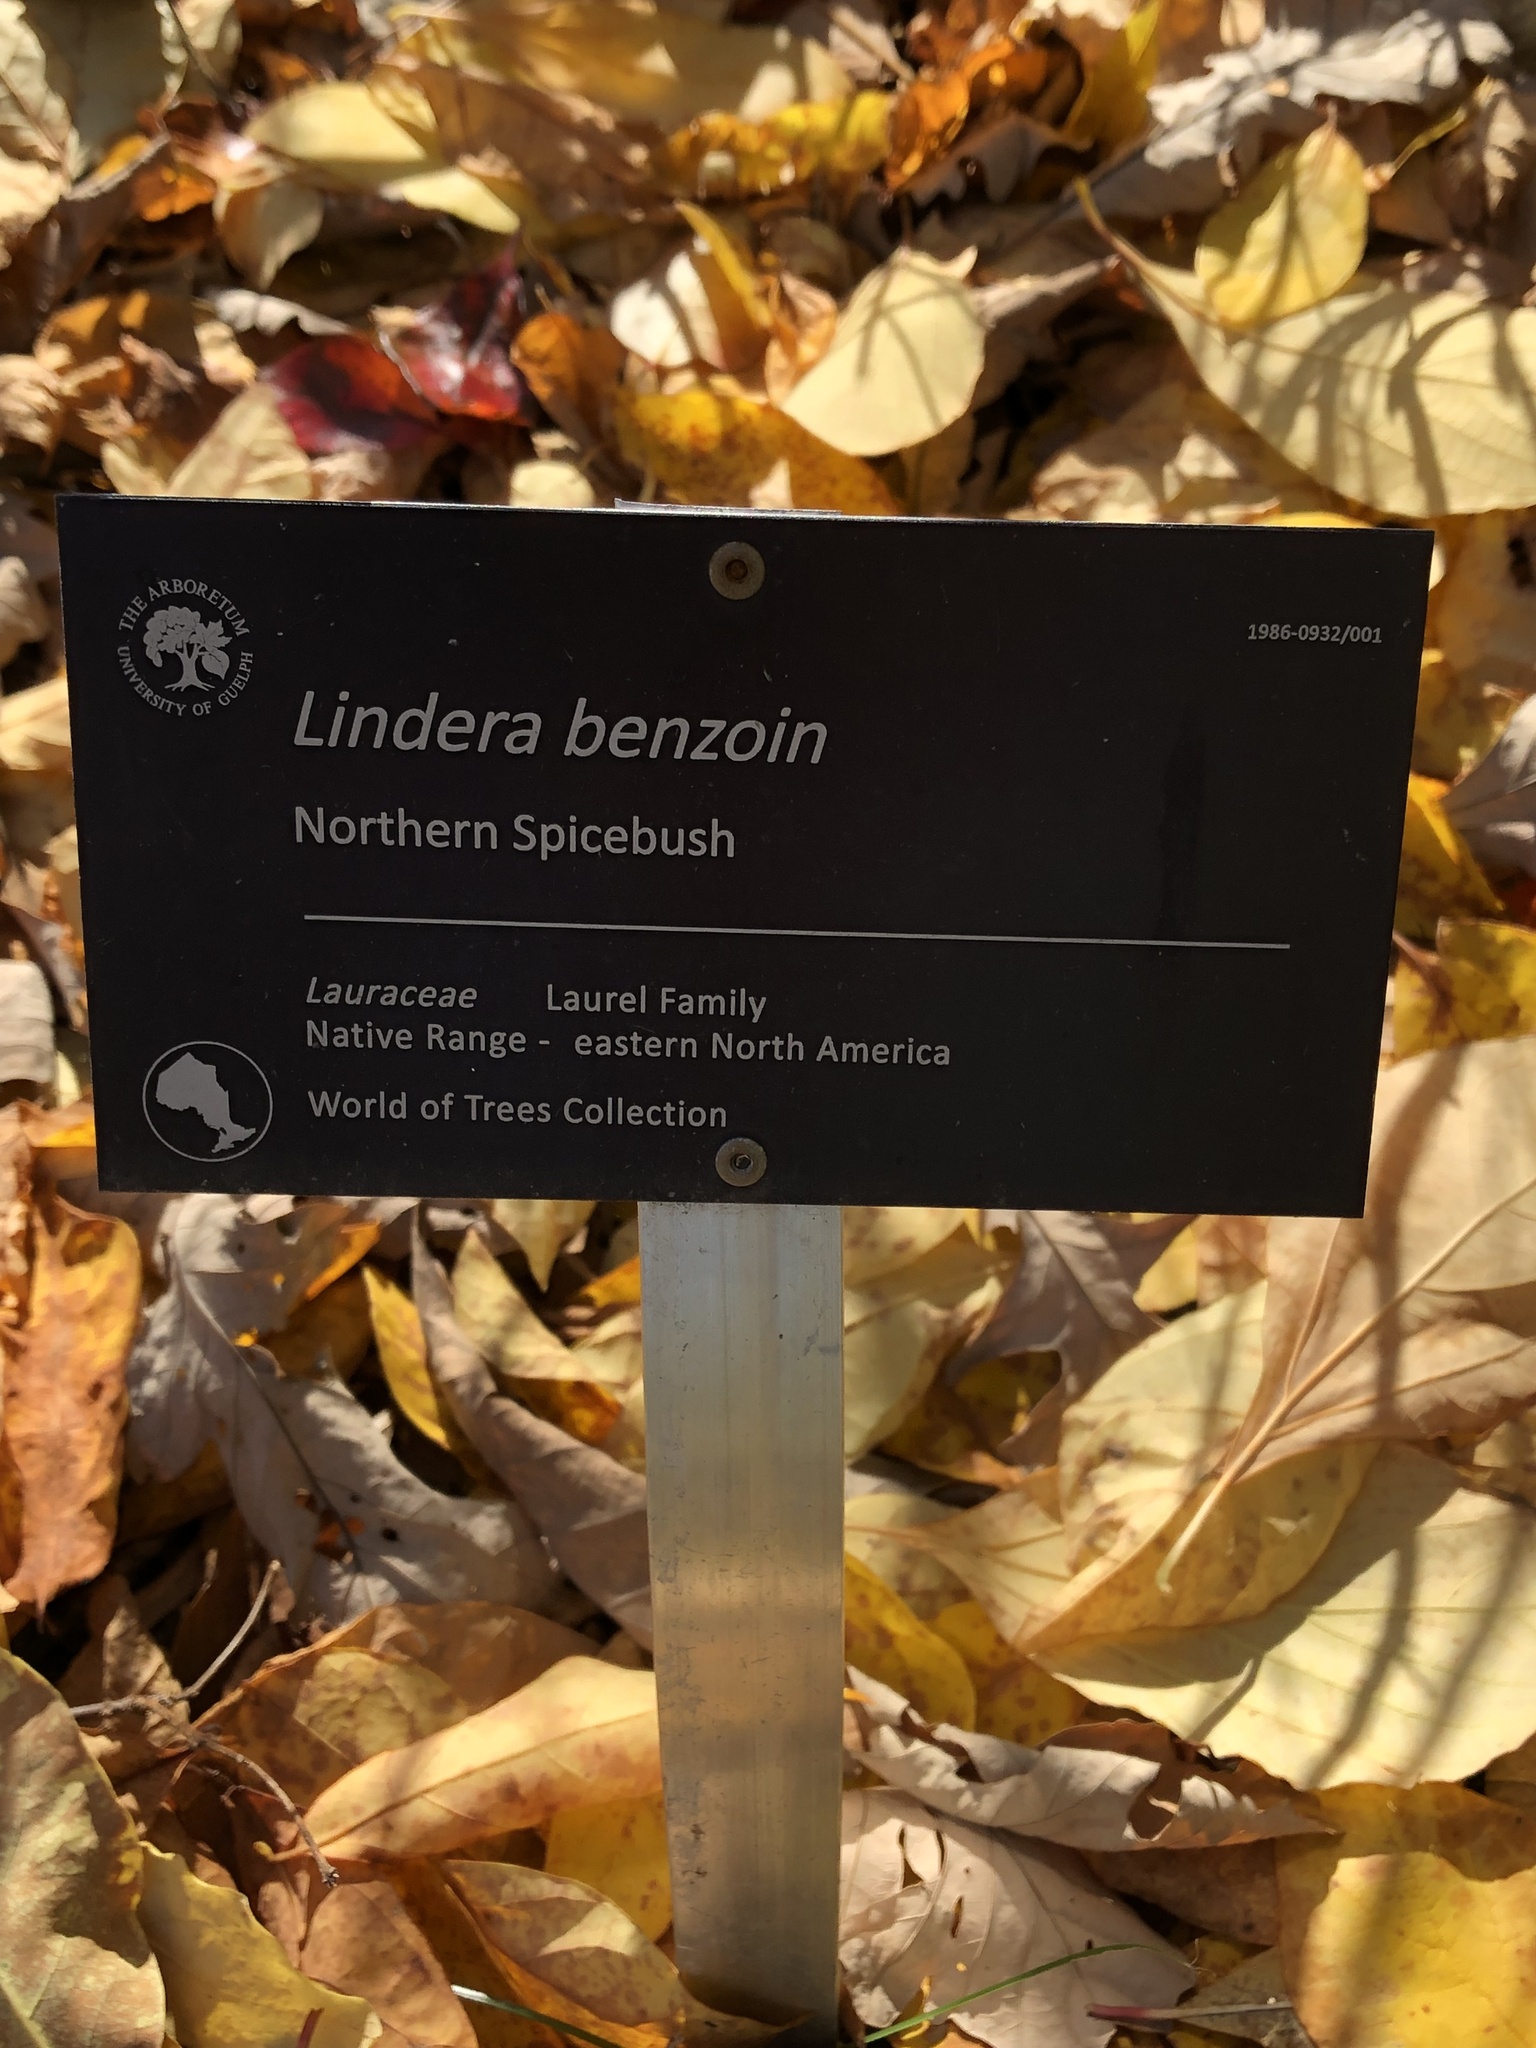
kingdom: Plantae
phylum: Tracheophyta
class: Magnoliopsida
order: Laurales
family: Lauraceae
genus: Lindera
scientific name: Lindera benzoin
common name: Spicebush
